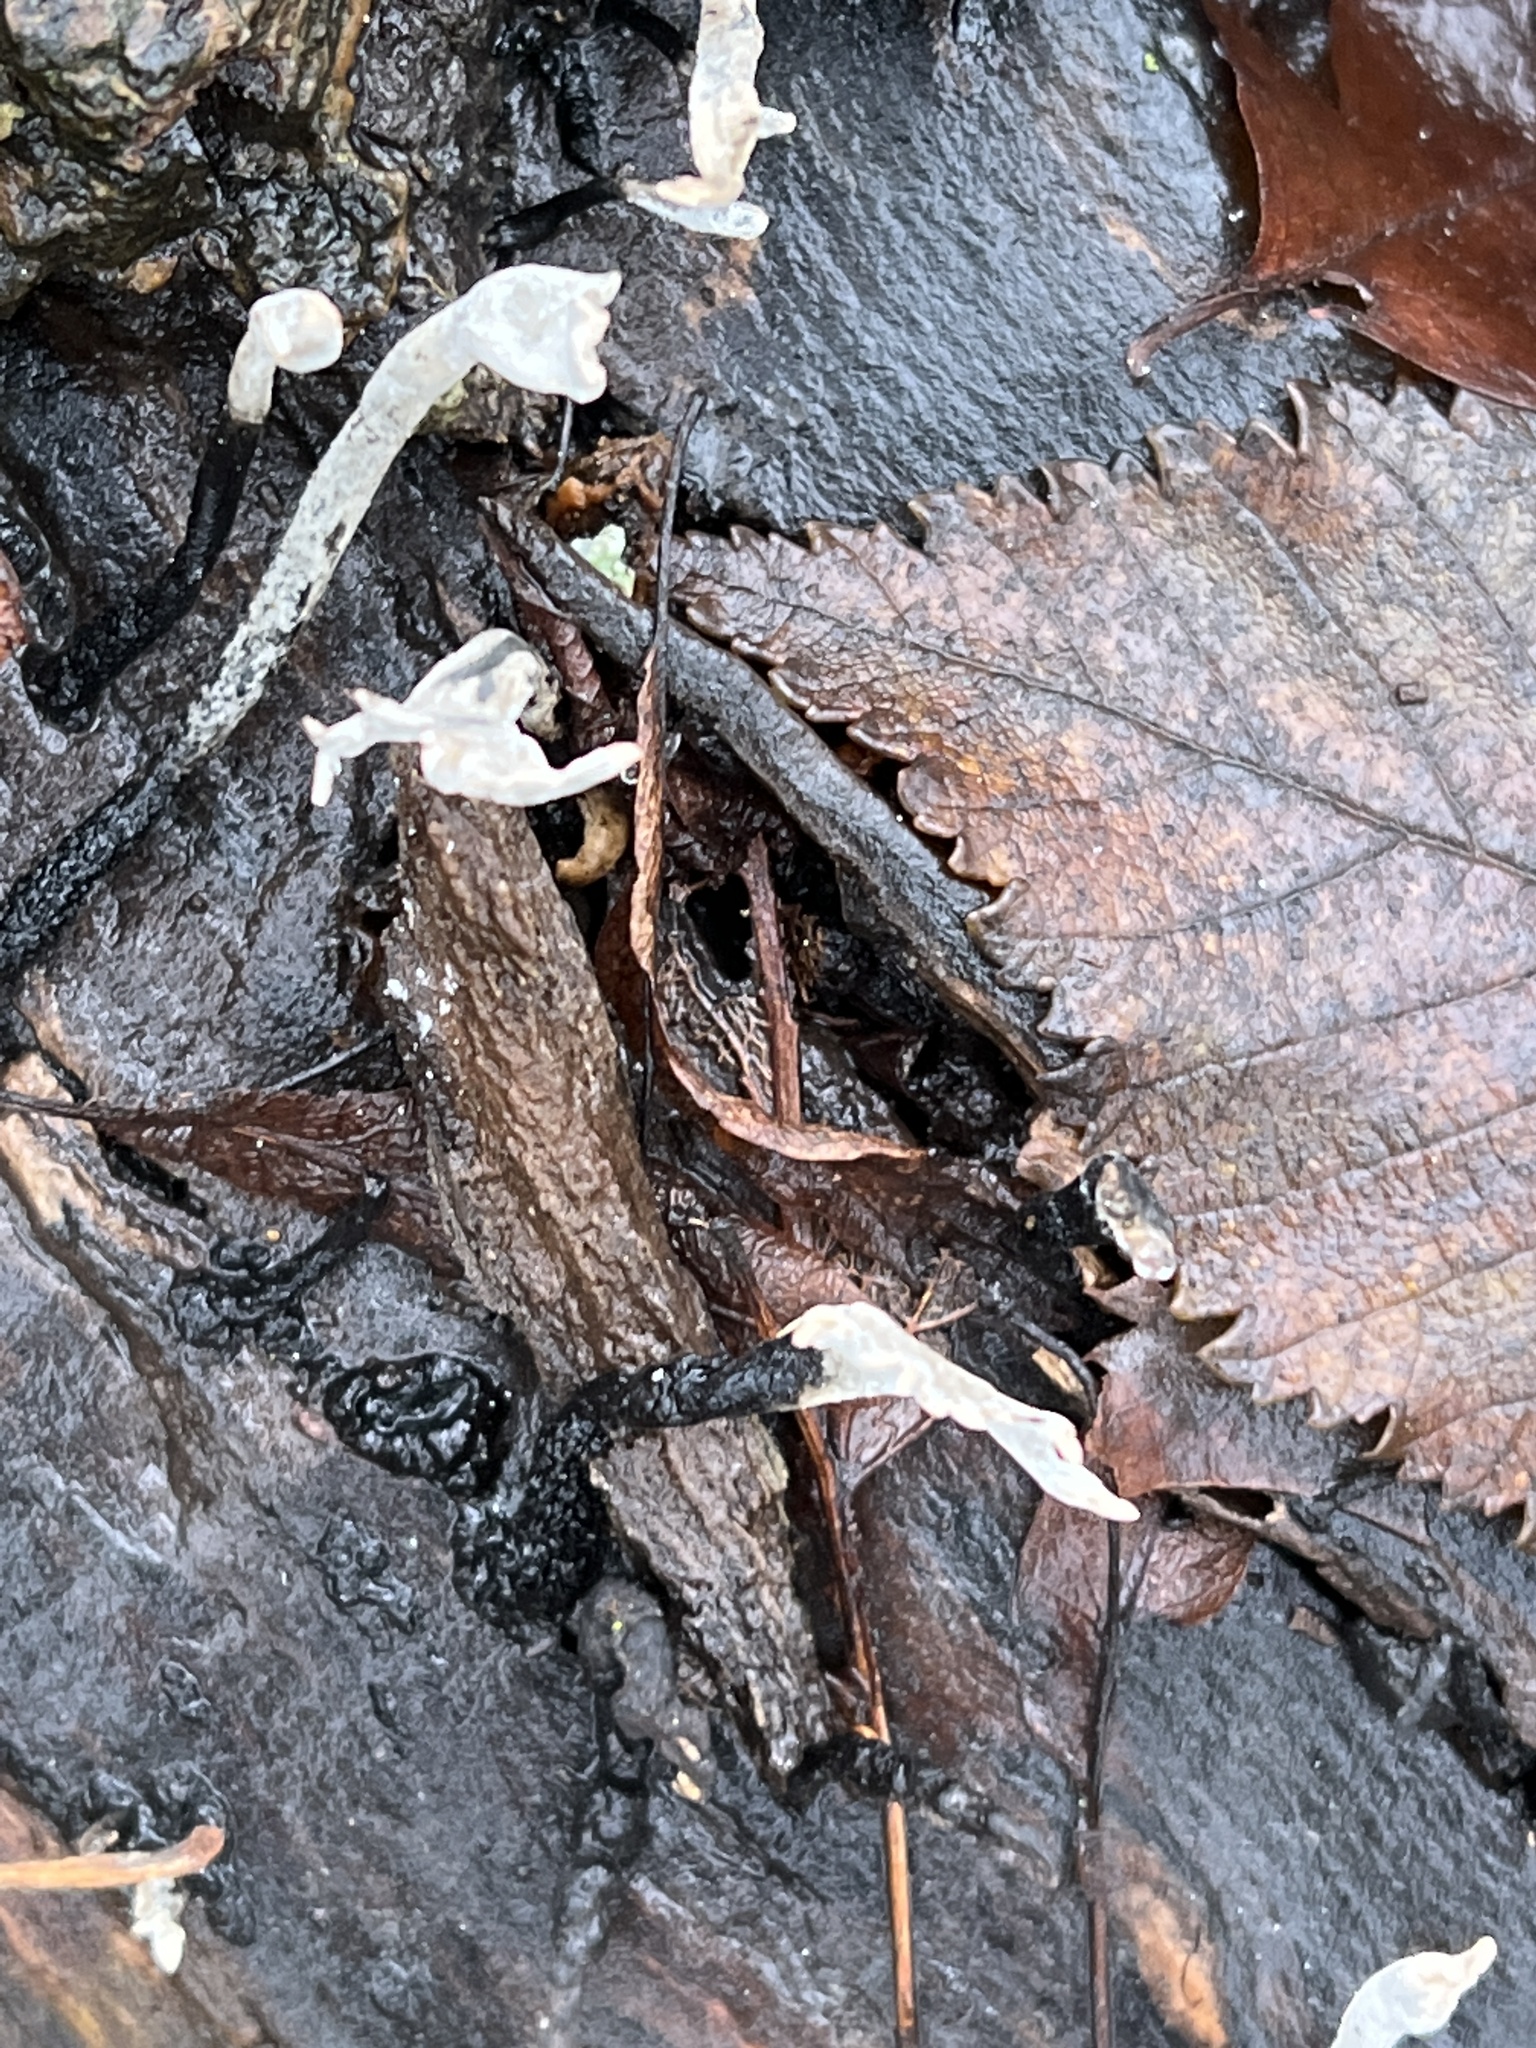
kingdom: Fungi
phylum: Ascomycota
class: Sordariomycetes
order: Xylariales
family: Xylariaceae
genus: Xylaria
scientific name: Xylaria hypoxylon
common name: Candle-snuff fungus
